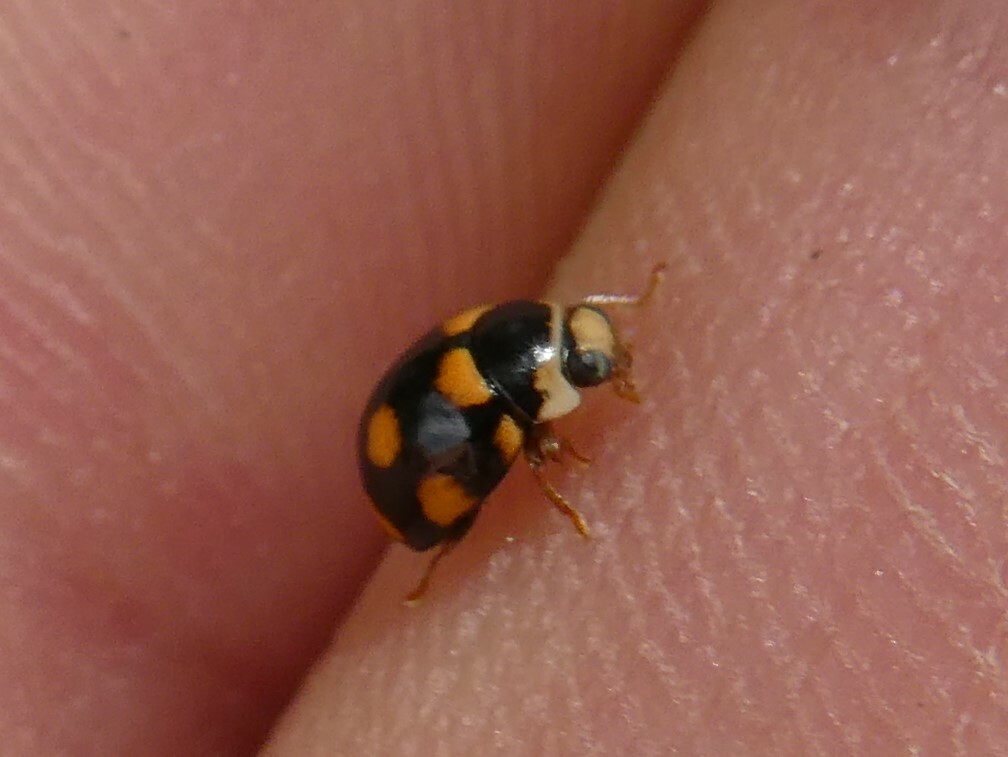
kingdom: Animalia
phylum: Arthropoda
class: Insecta
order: Coleoptera
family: Coccinellidae
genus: Brachiacantha
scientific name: Brachiacantha ursina
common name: Ursine spurleg lady beetle
